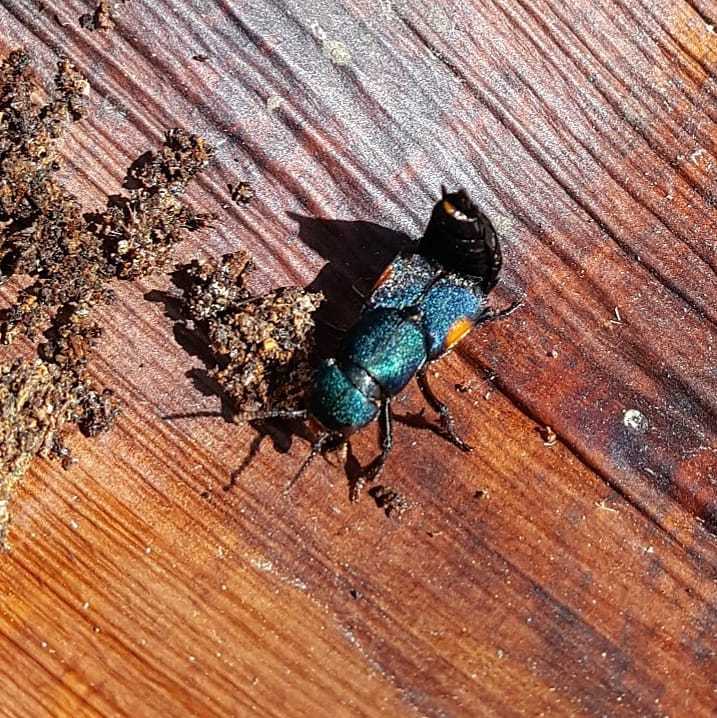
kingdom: Animalia
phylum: Arthropoda
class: Insecta
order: Coleoptera
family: Staphylinidae
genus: Platydracus
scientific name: Platydracus fulvomaculatus
